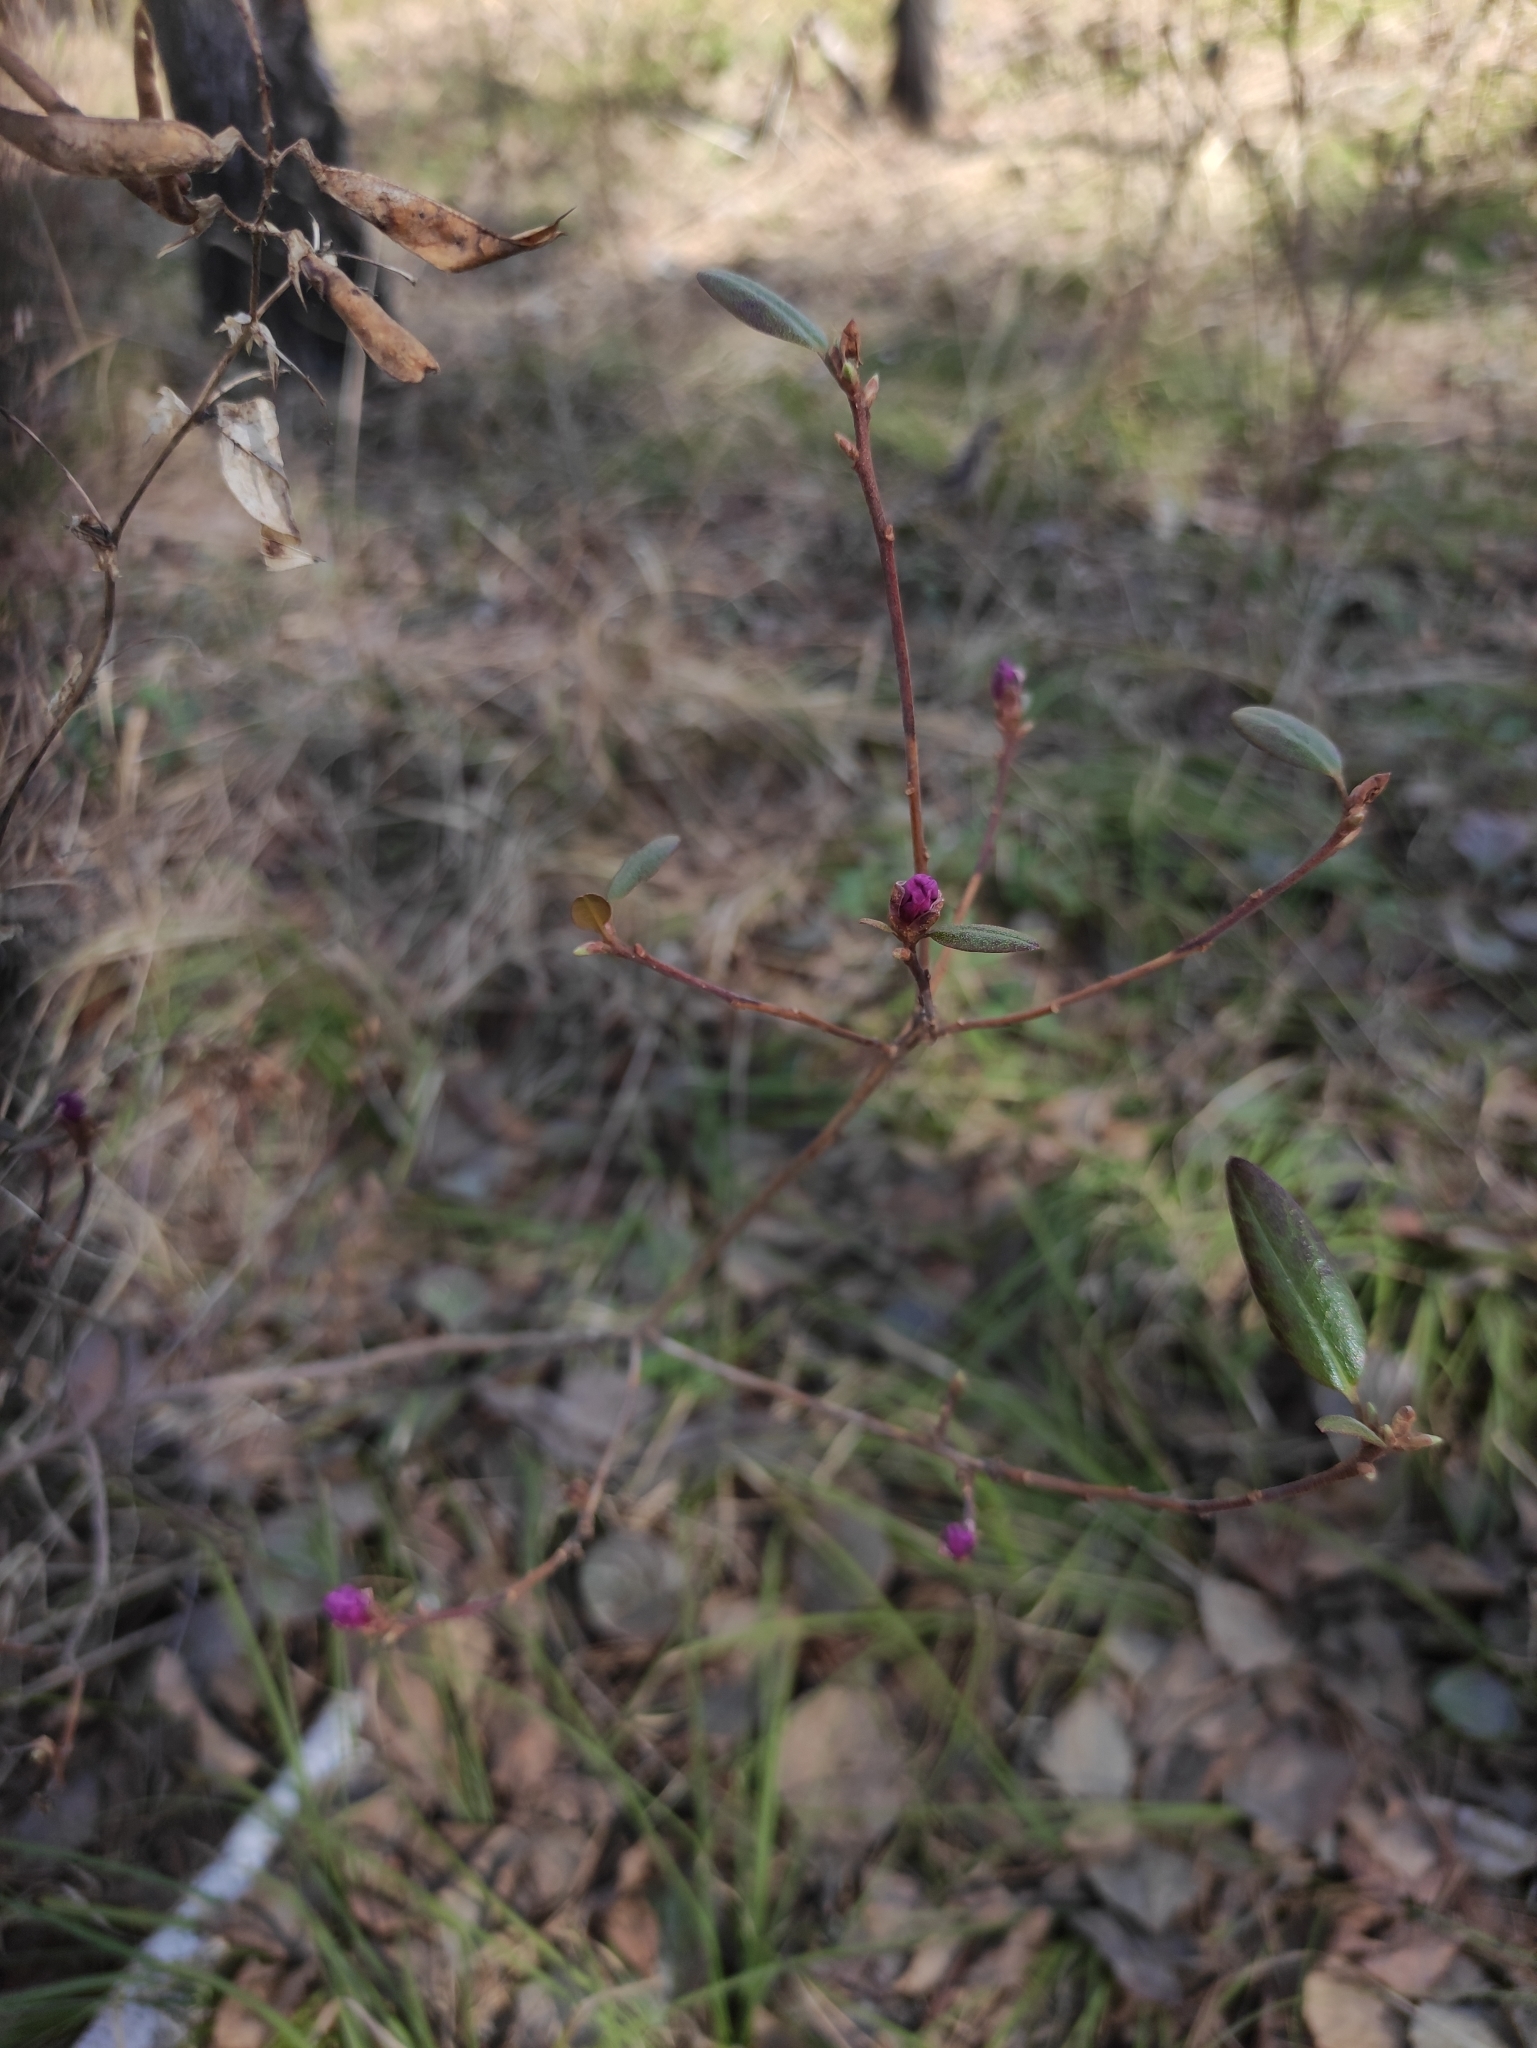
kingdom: Plantae
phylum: Tracheophyta
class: Magnoliopsida
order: Ericales
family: Ericaceae
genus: Rhododendron
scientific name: Rhododendron dauricum
